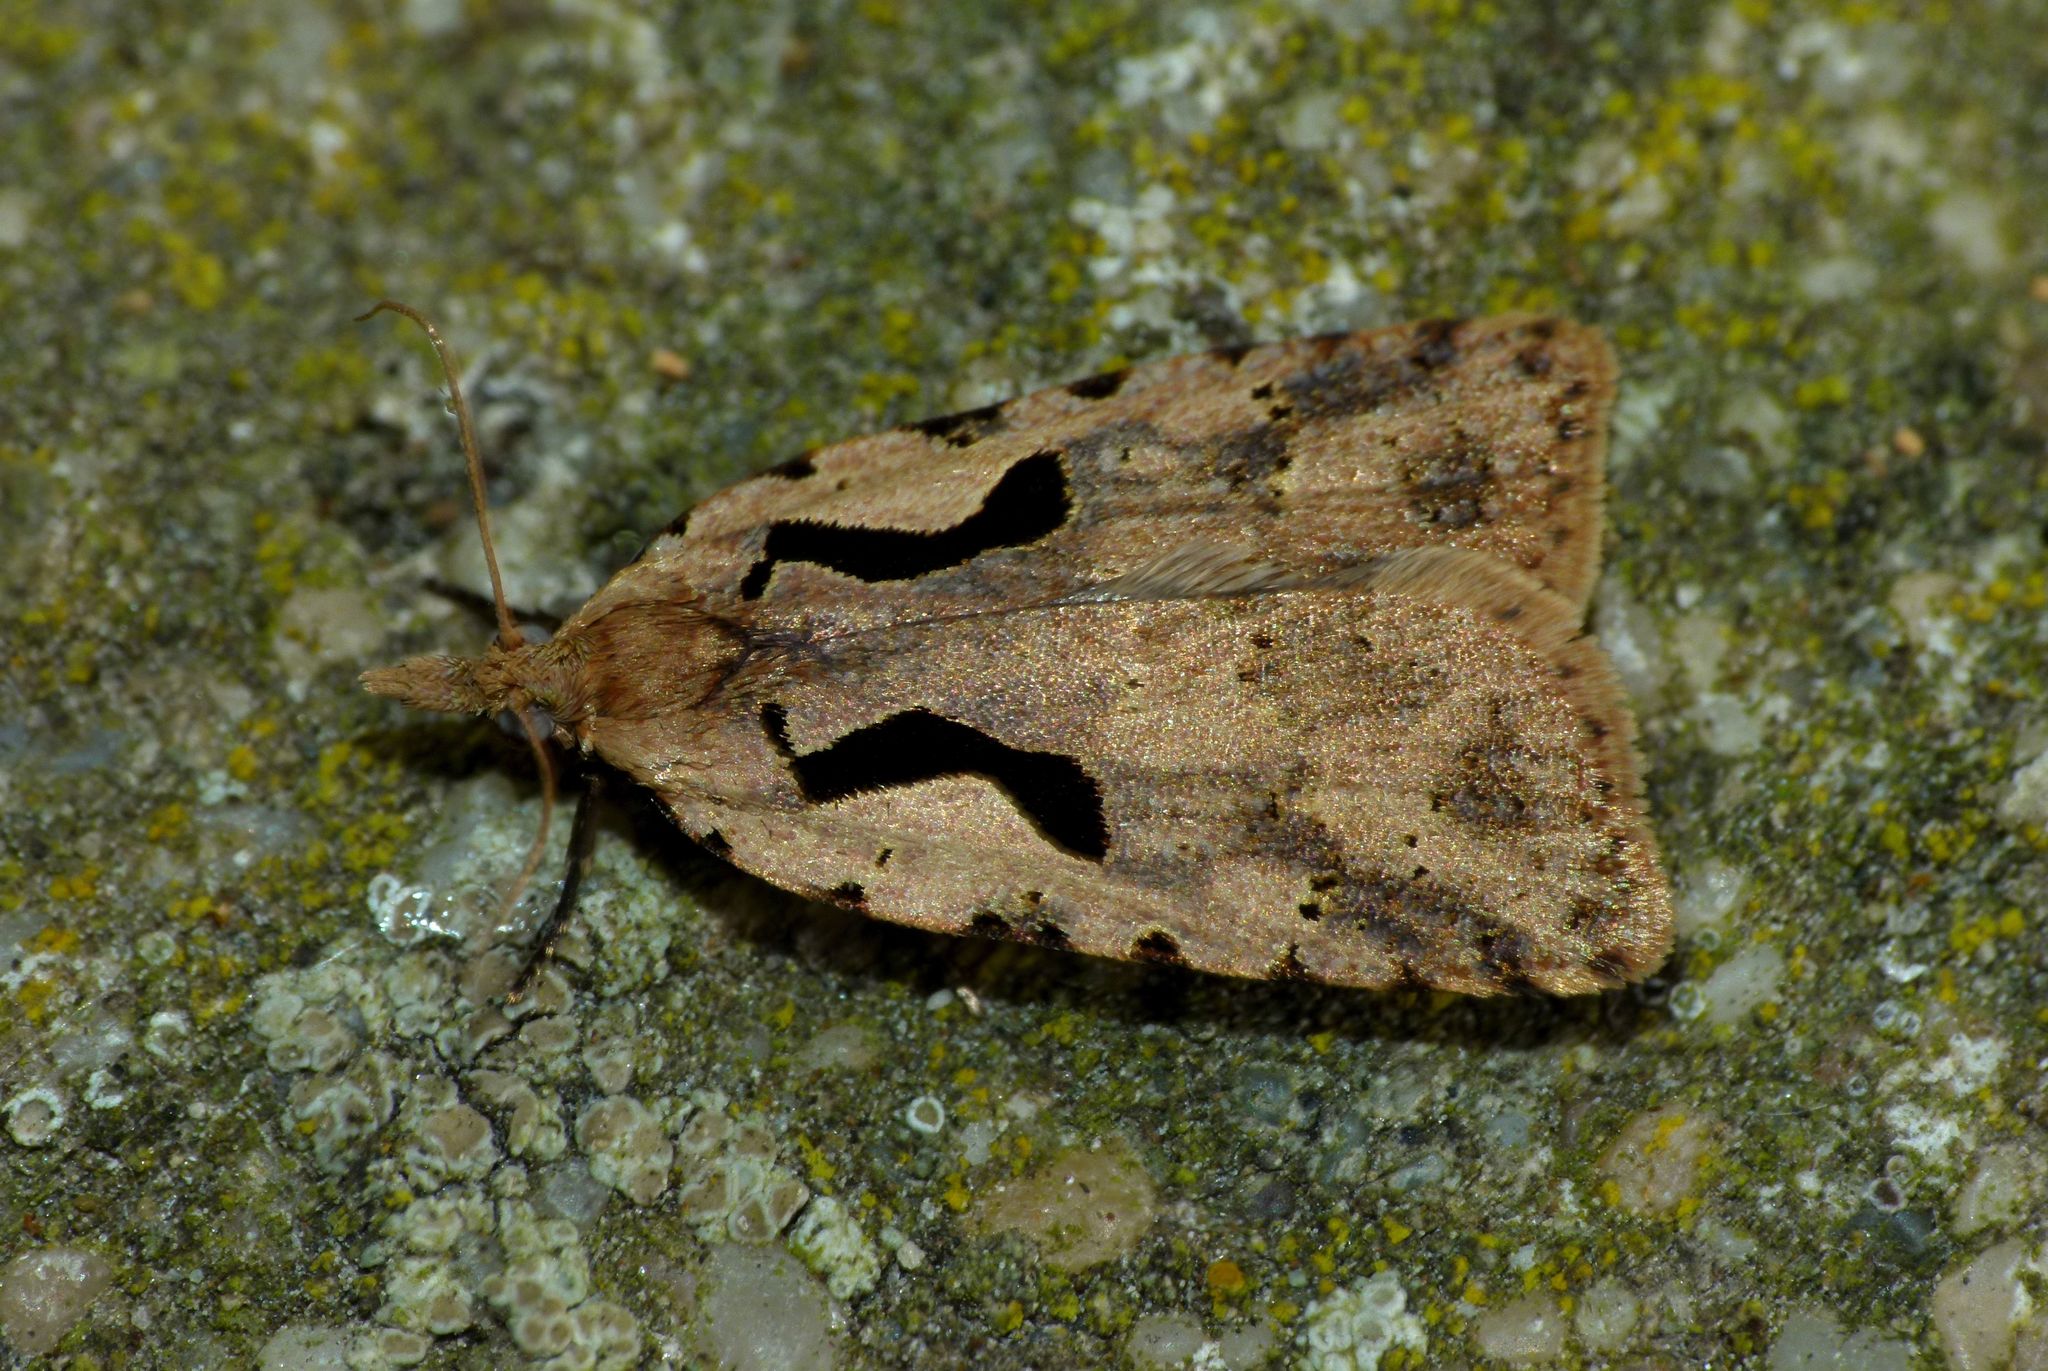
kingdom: Animalia
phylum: Arthropoda
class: Insecta
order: Lepidoptera
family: Tortricidae
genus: Cnephasia
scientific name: Cnephasia jactatana
